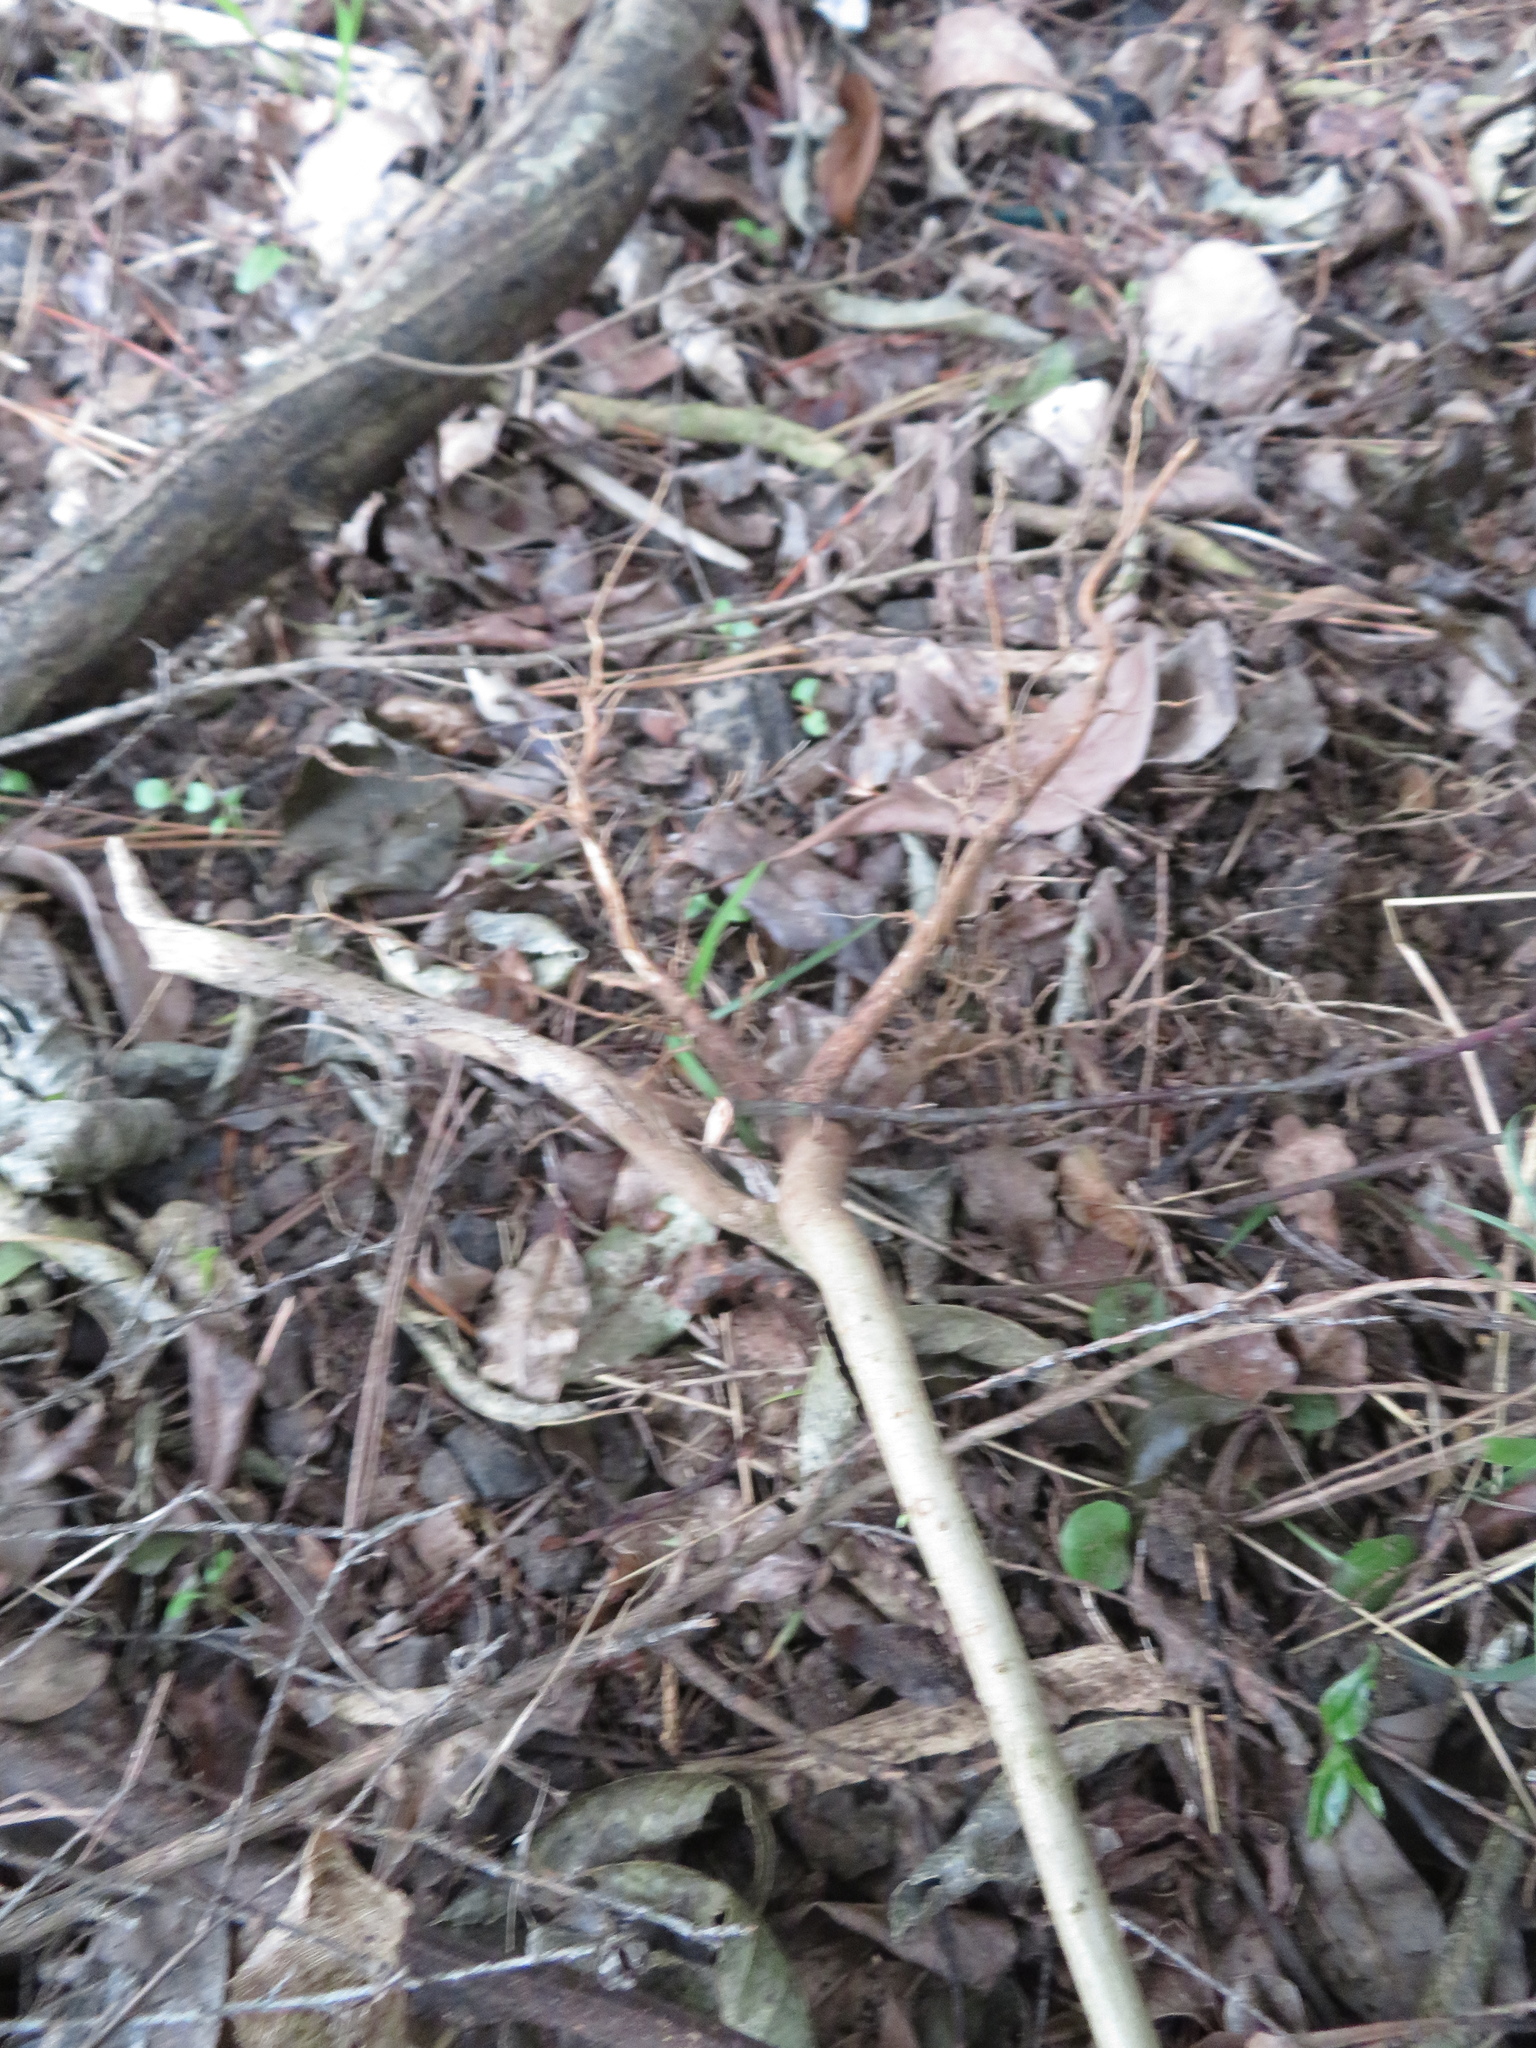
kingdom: Plantae
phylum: Tracheophyta
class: Magnoliopsida
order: Lamiales
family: Oleaceae
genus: Ligustrum
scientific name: Ligustrum lucidum
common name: Glossy privet
